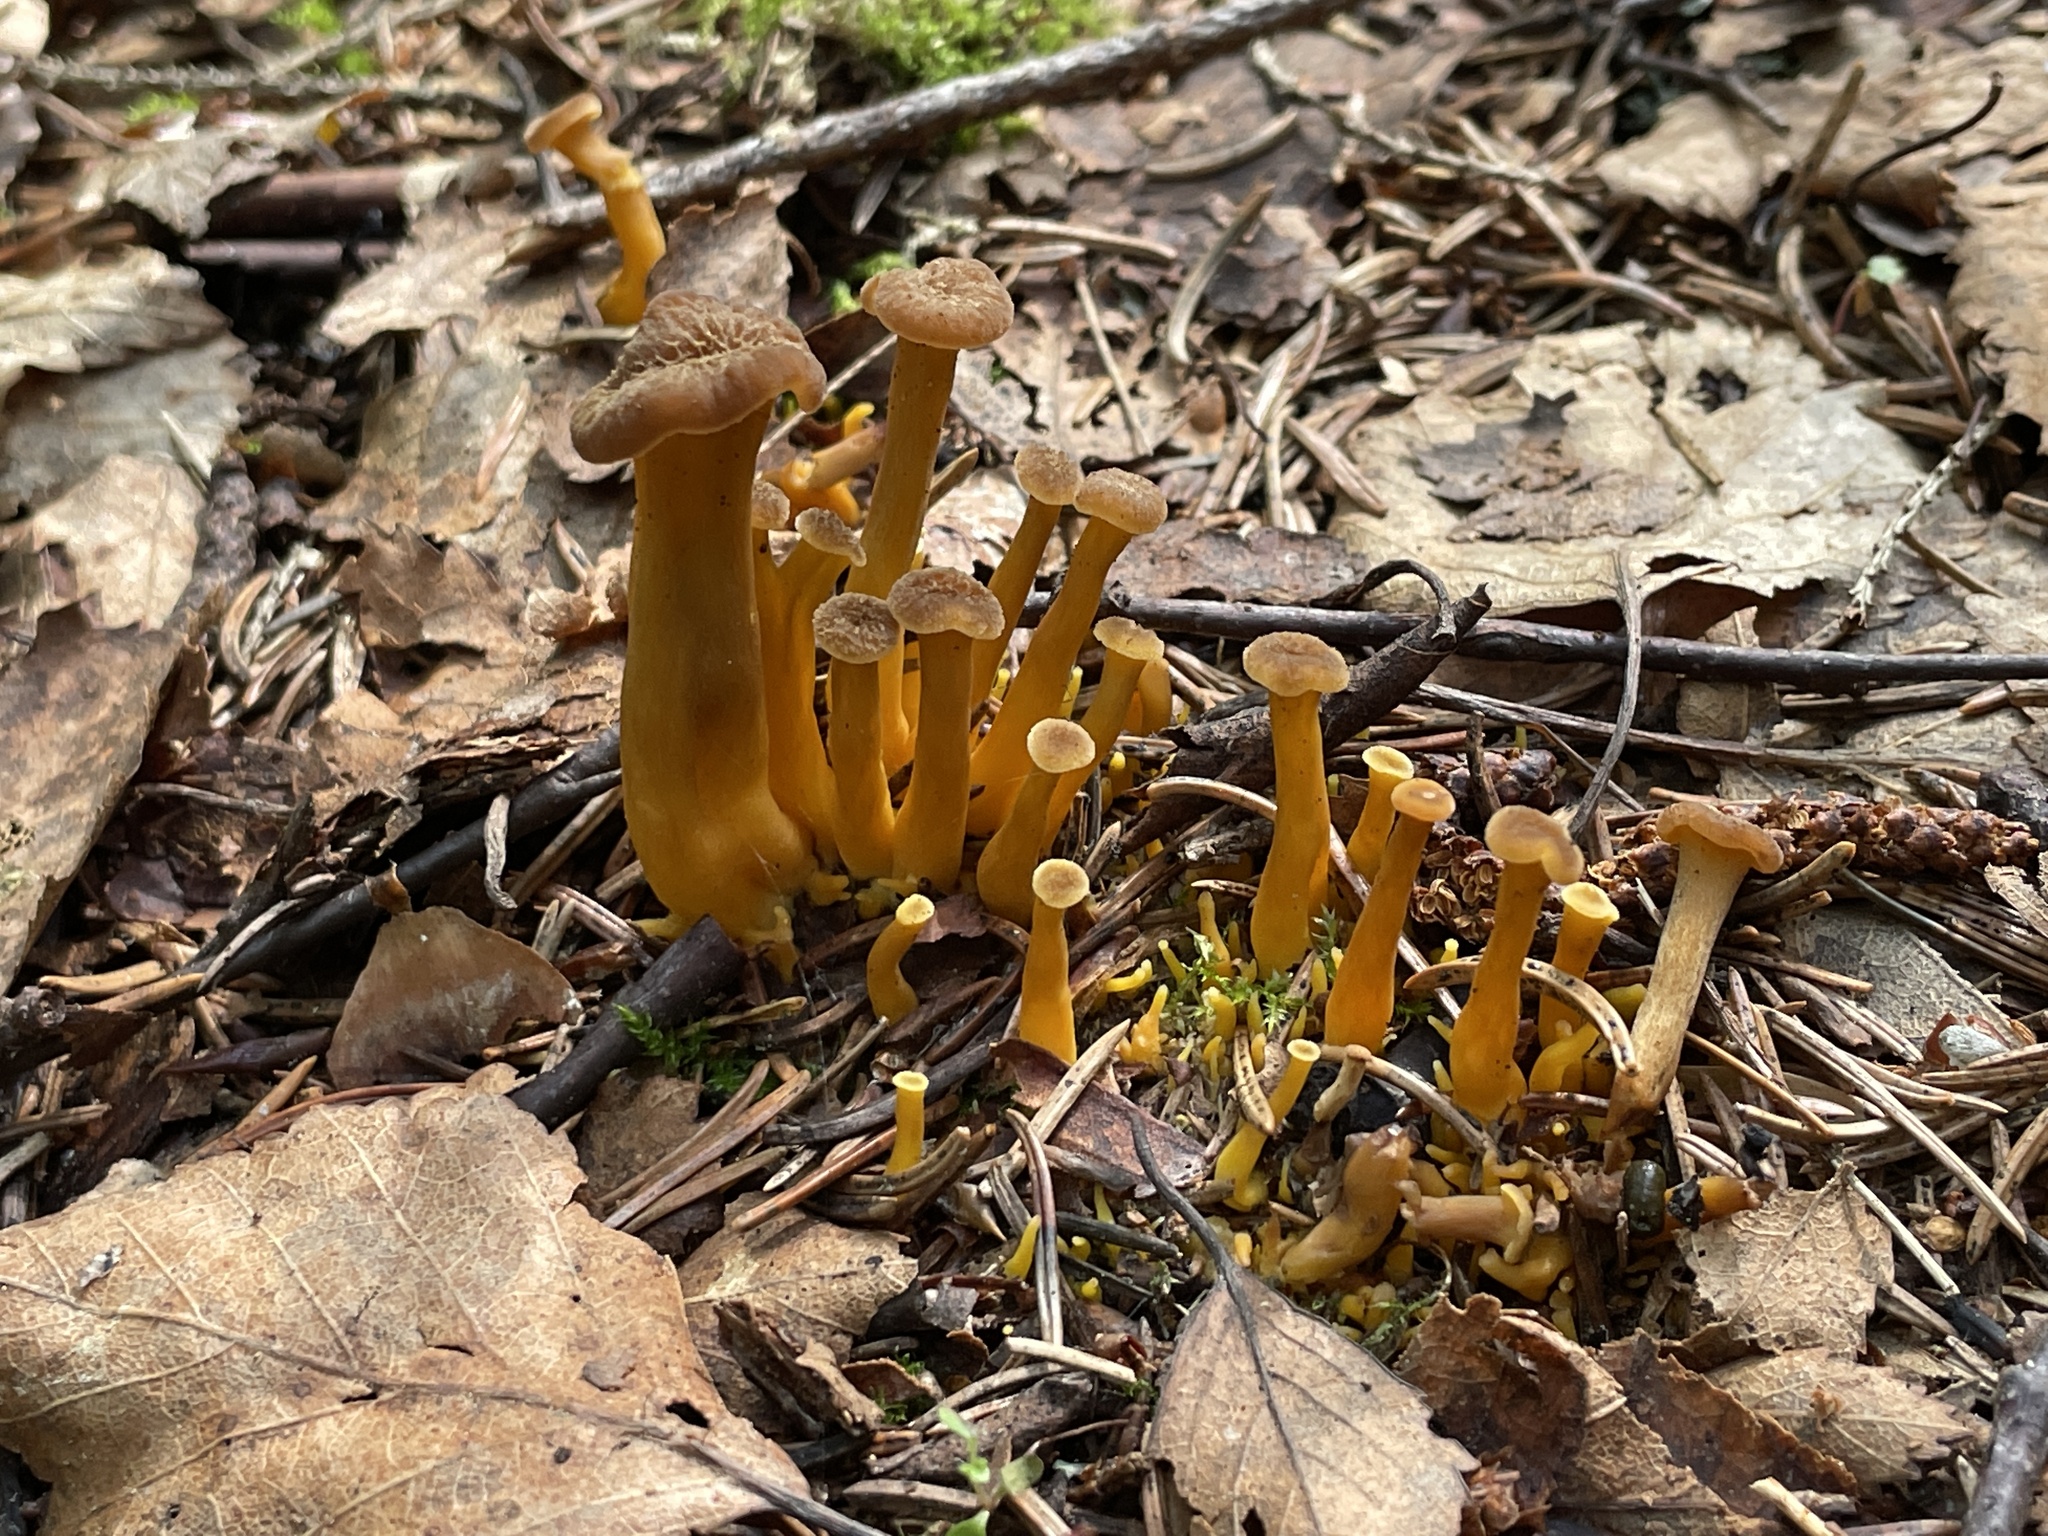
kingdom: Fungi
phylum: Basidiomycota
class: Agaricomycetes
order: Cantharellales
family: Hydnaceae
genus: Craterellus
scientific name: Craterellus tubaeformis
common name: Yellowfoot
